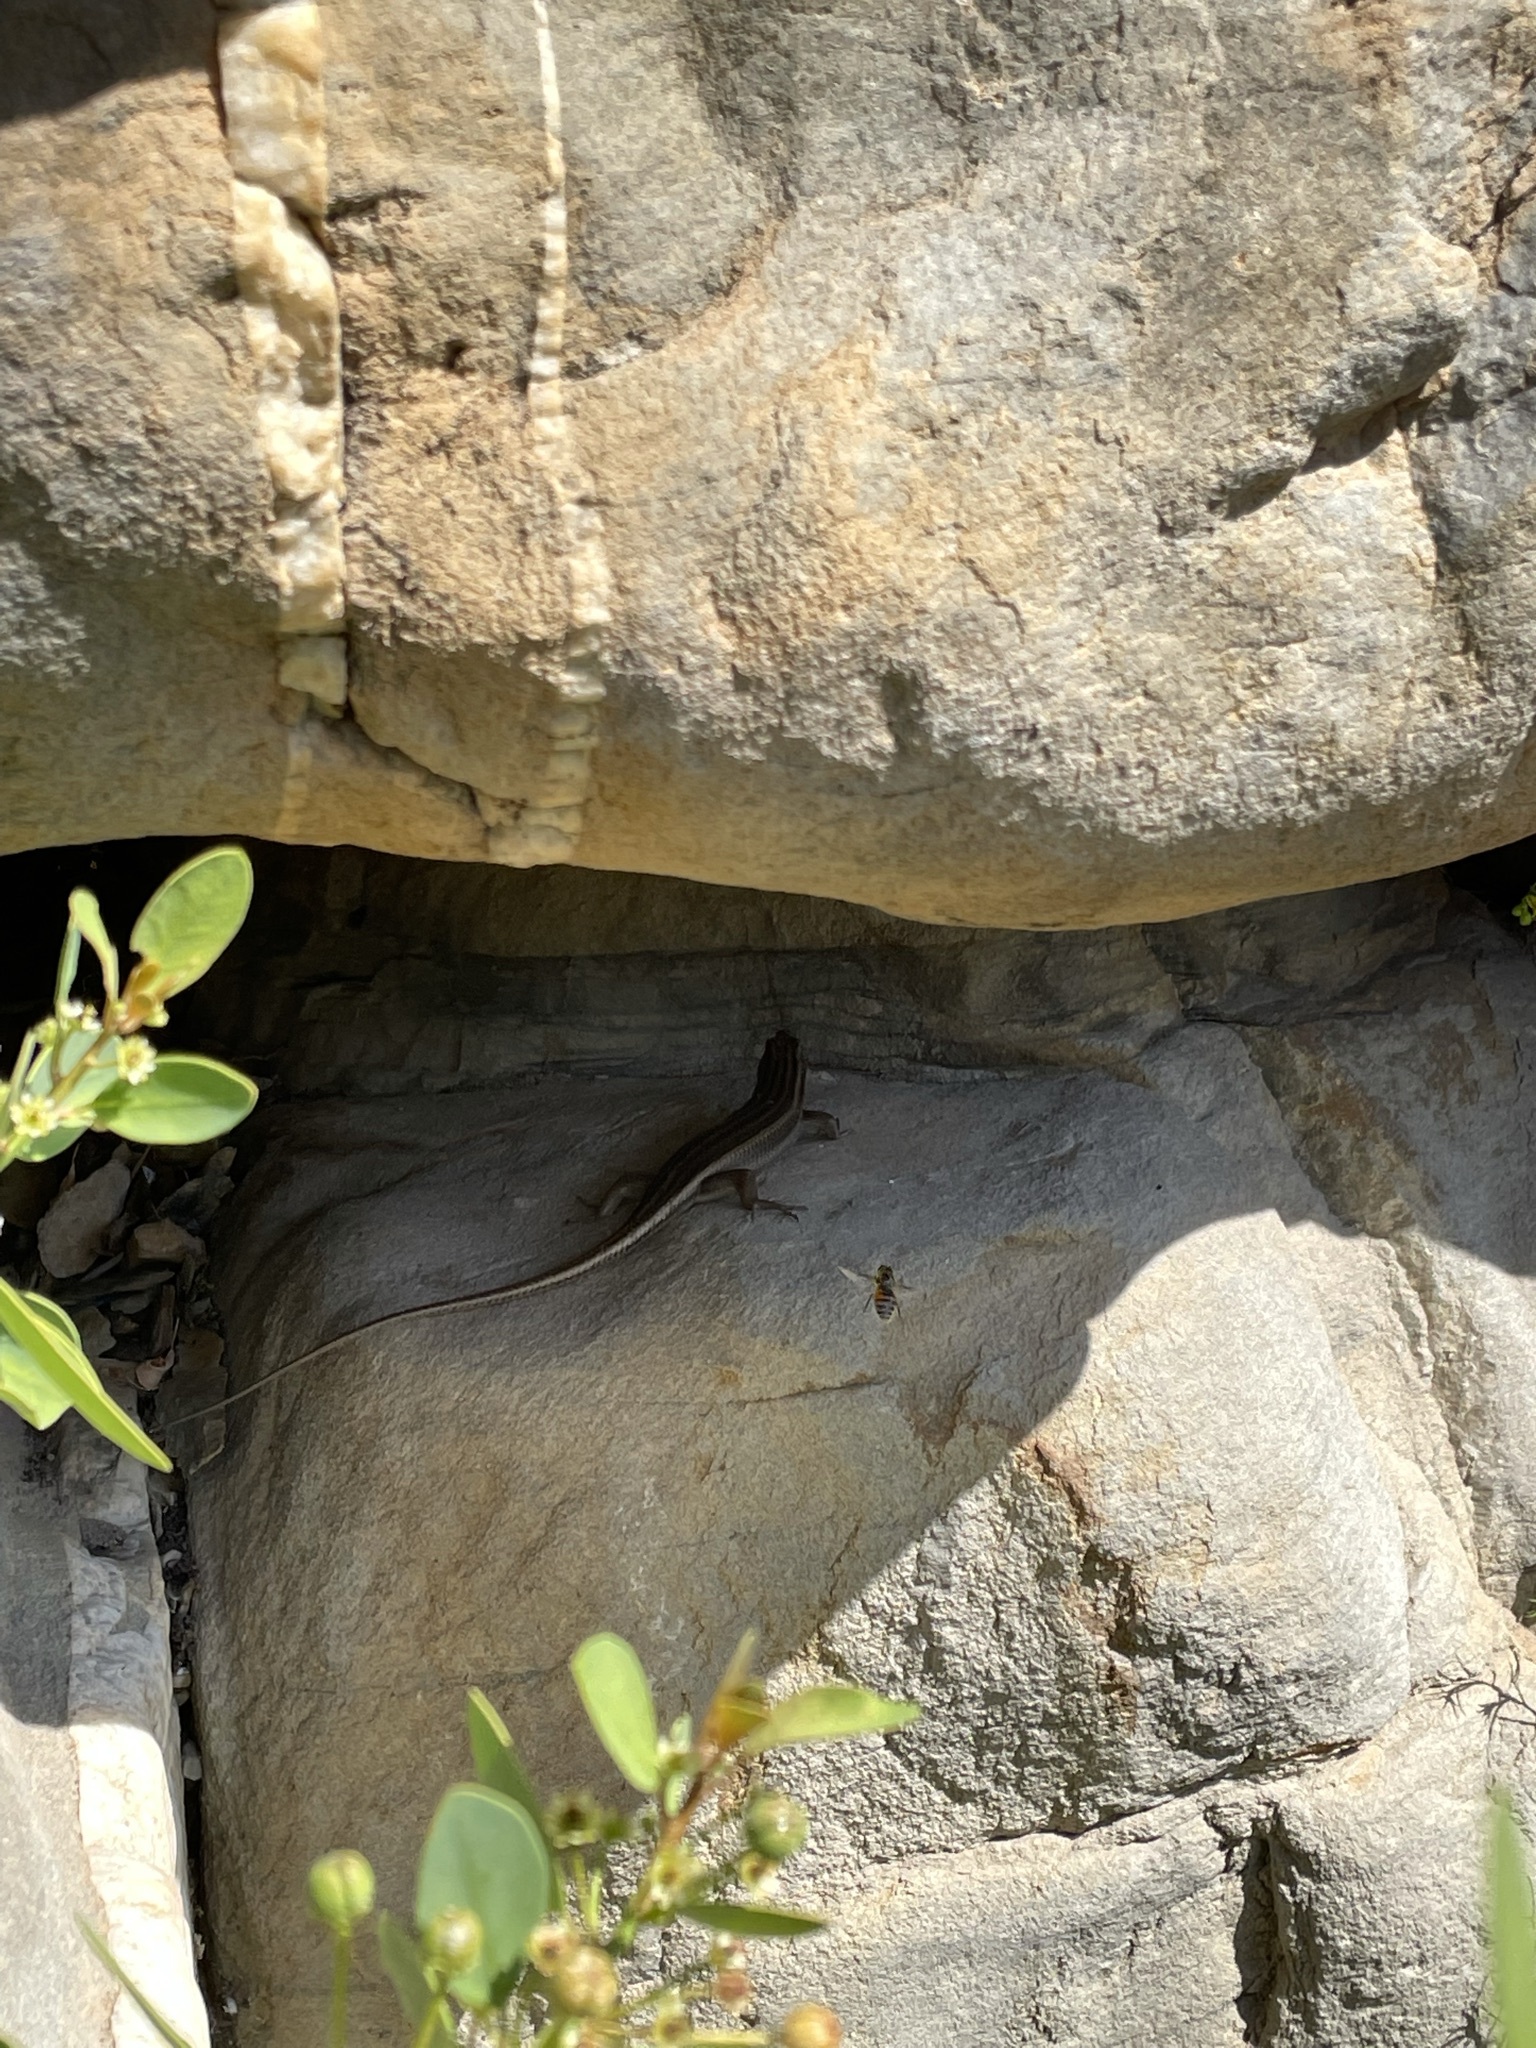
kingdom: Animalia
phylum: Chordata
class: Squamata
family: Scincidae
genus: Trachylepis
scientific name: Trachylepis sulcata
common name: Western rock skink
